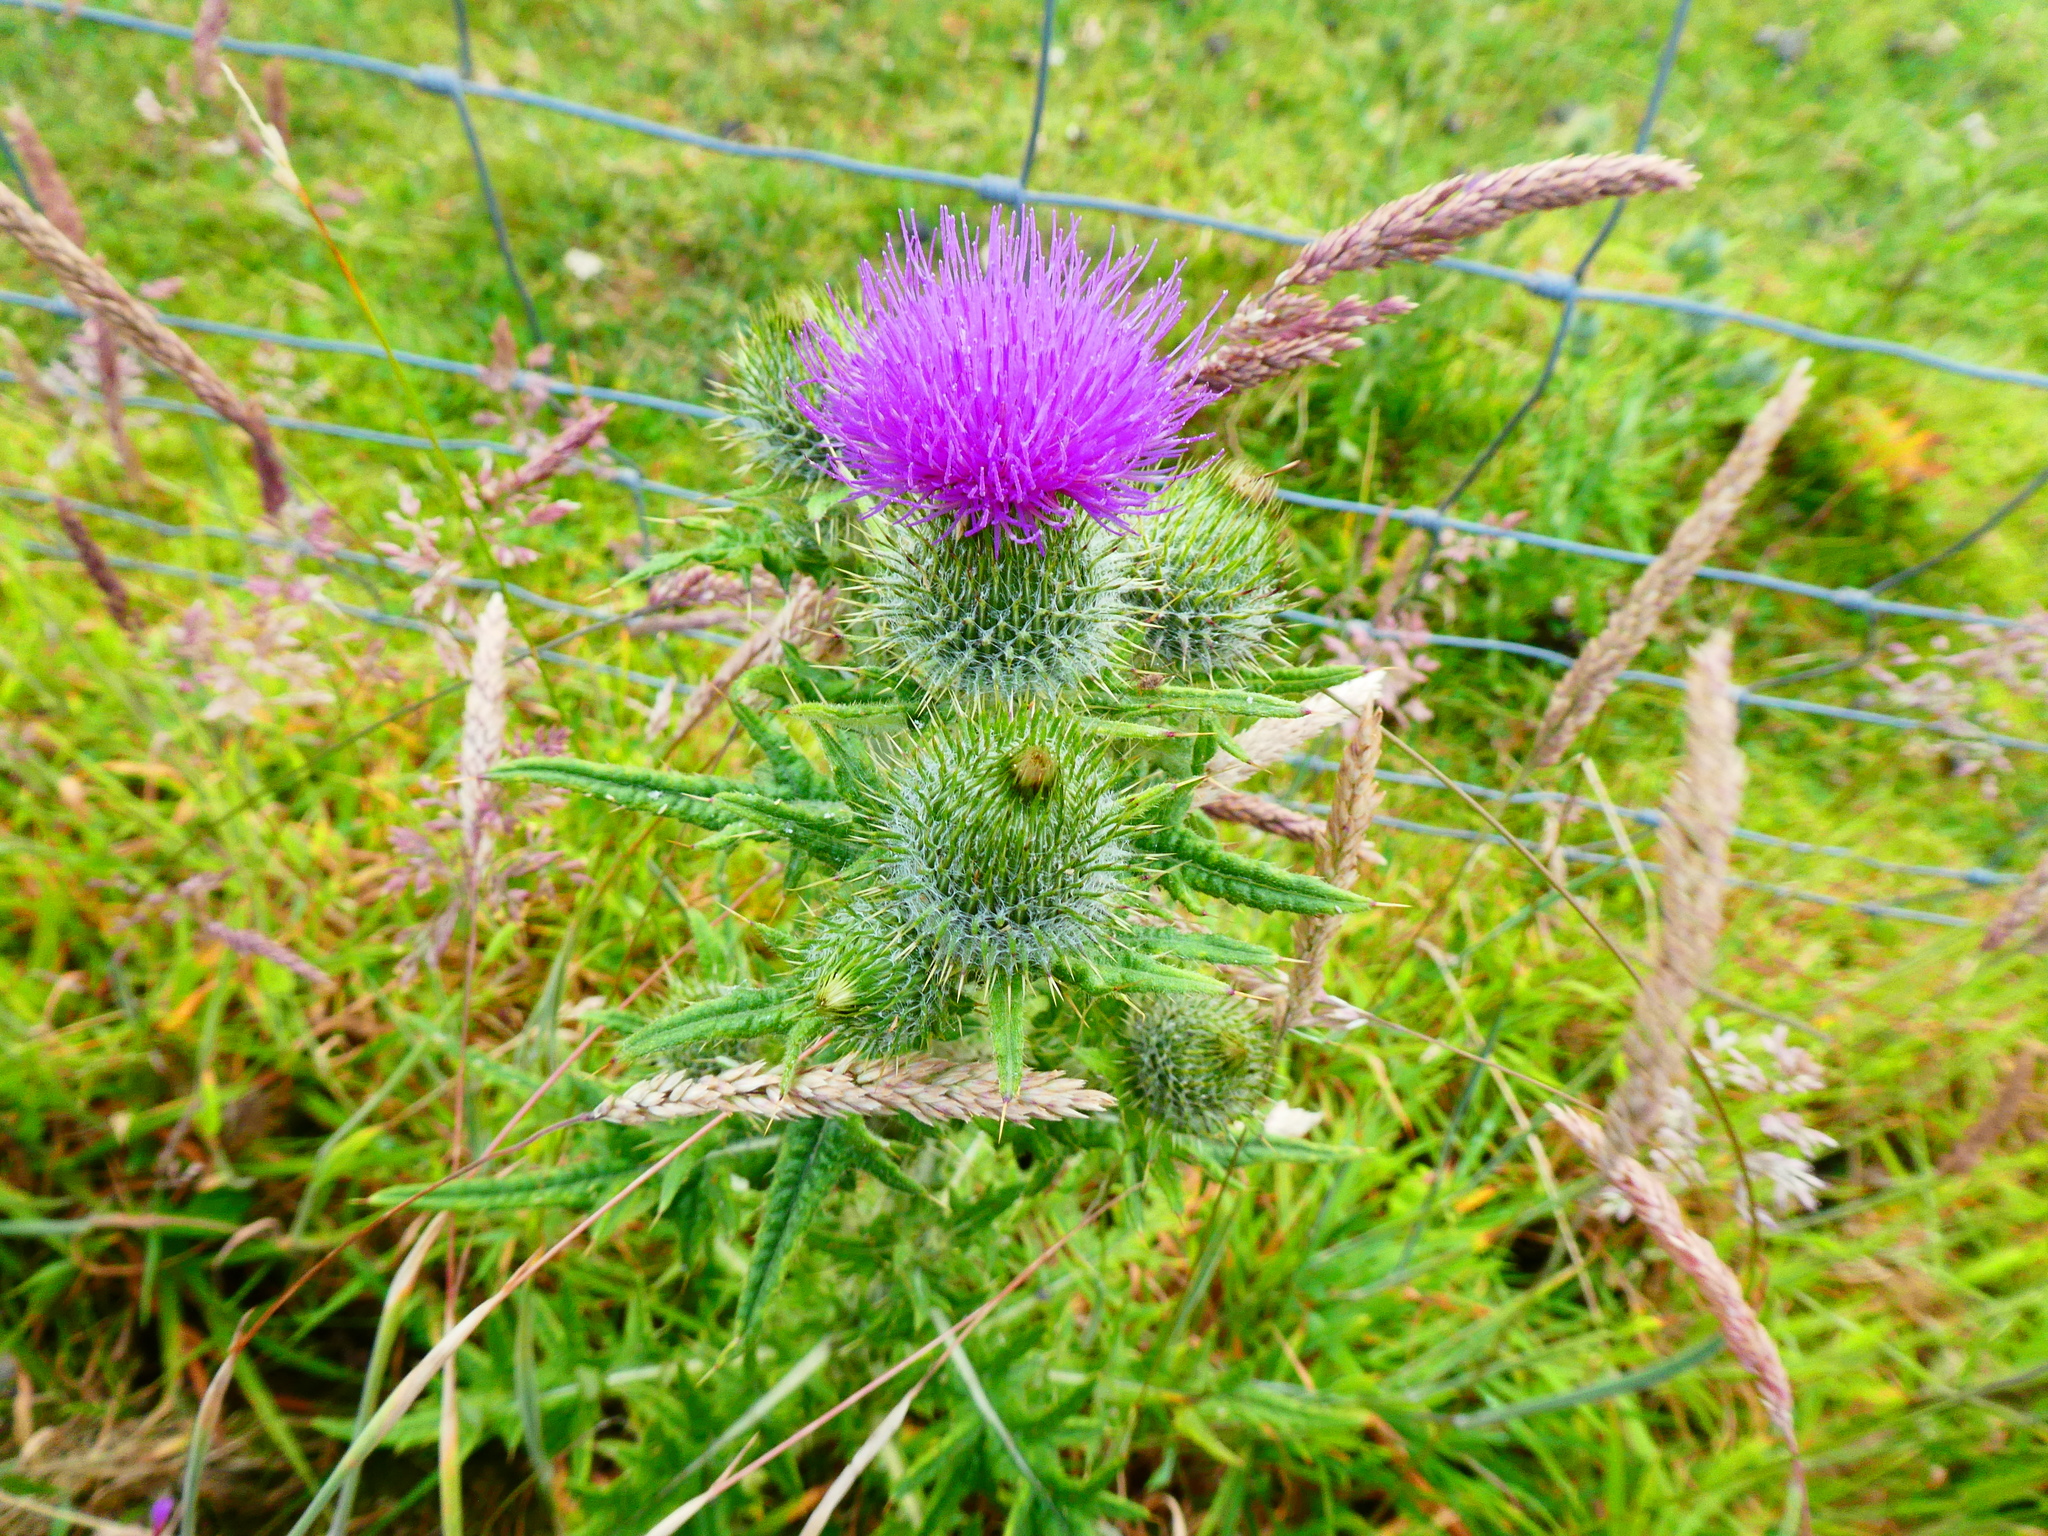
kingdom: Plantae
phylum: Tracheophyta
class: Magnoliopsida
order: Asterales
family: Asteraceae
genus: Cirsium
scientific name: Cirsium vulgare
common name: Bull thistle
